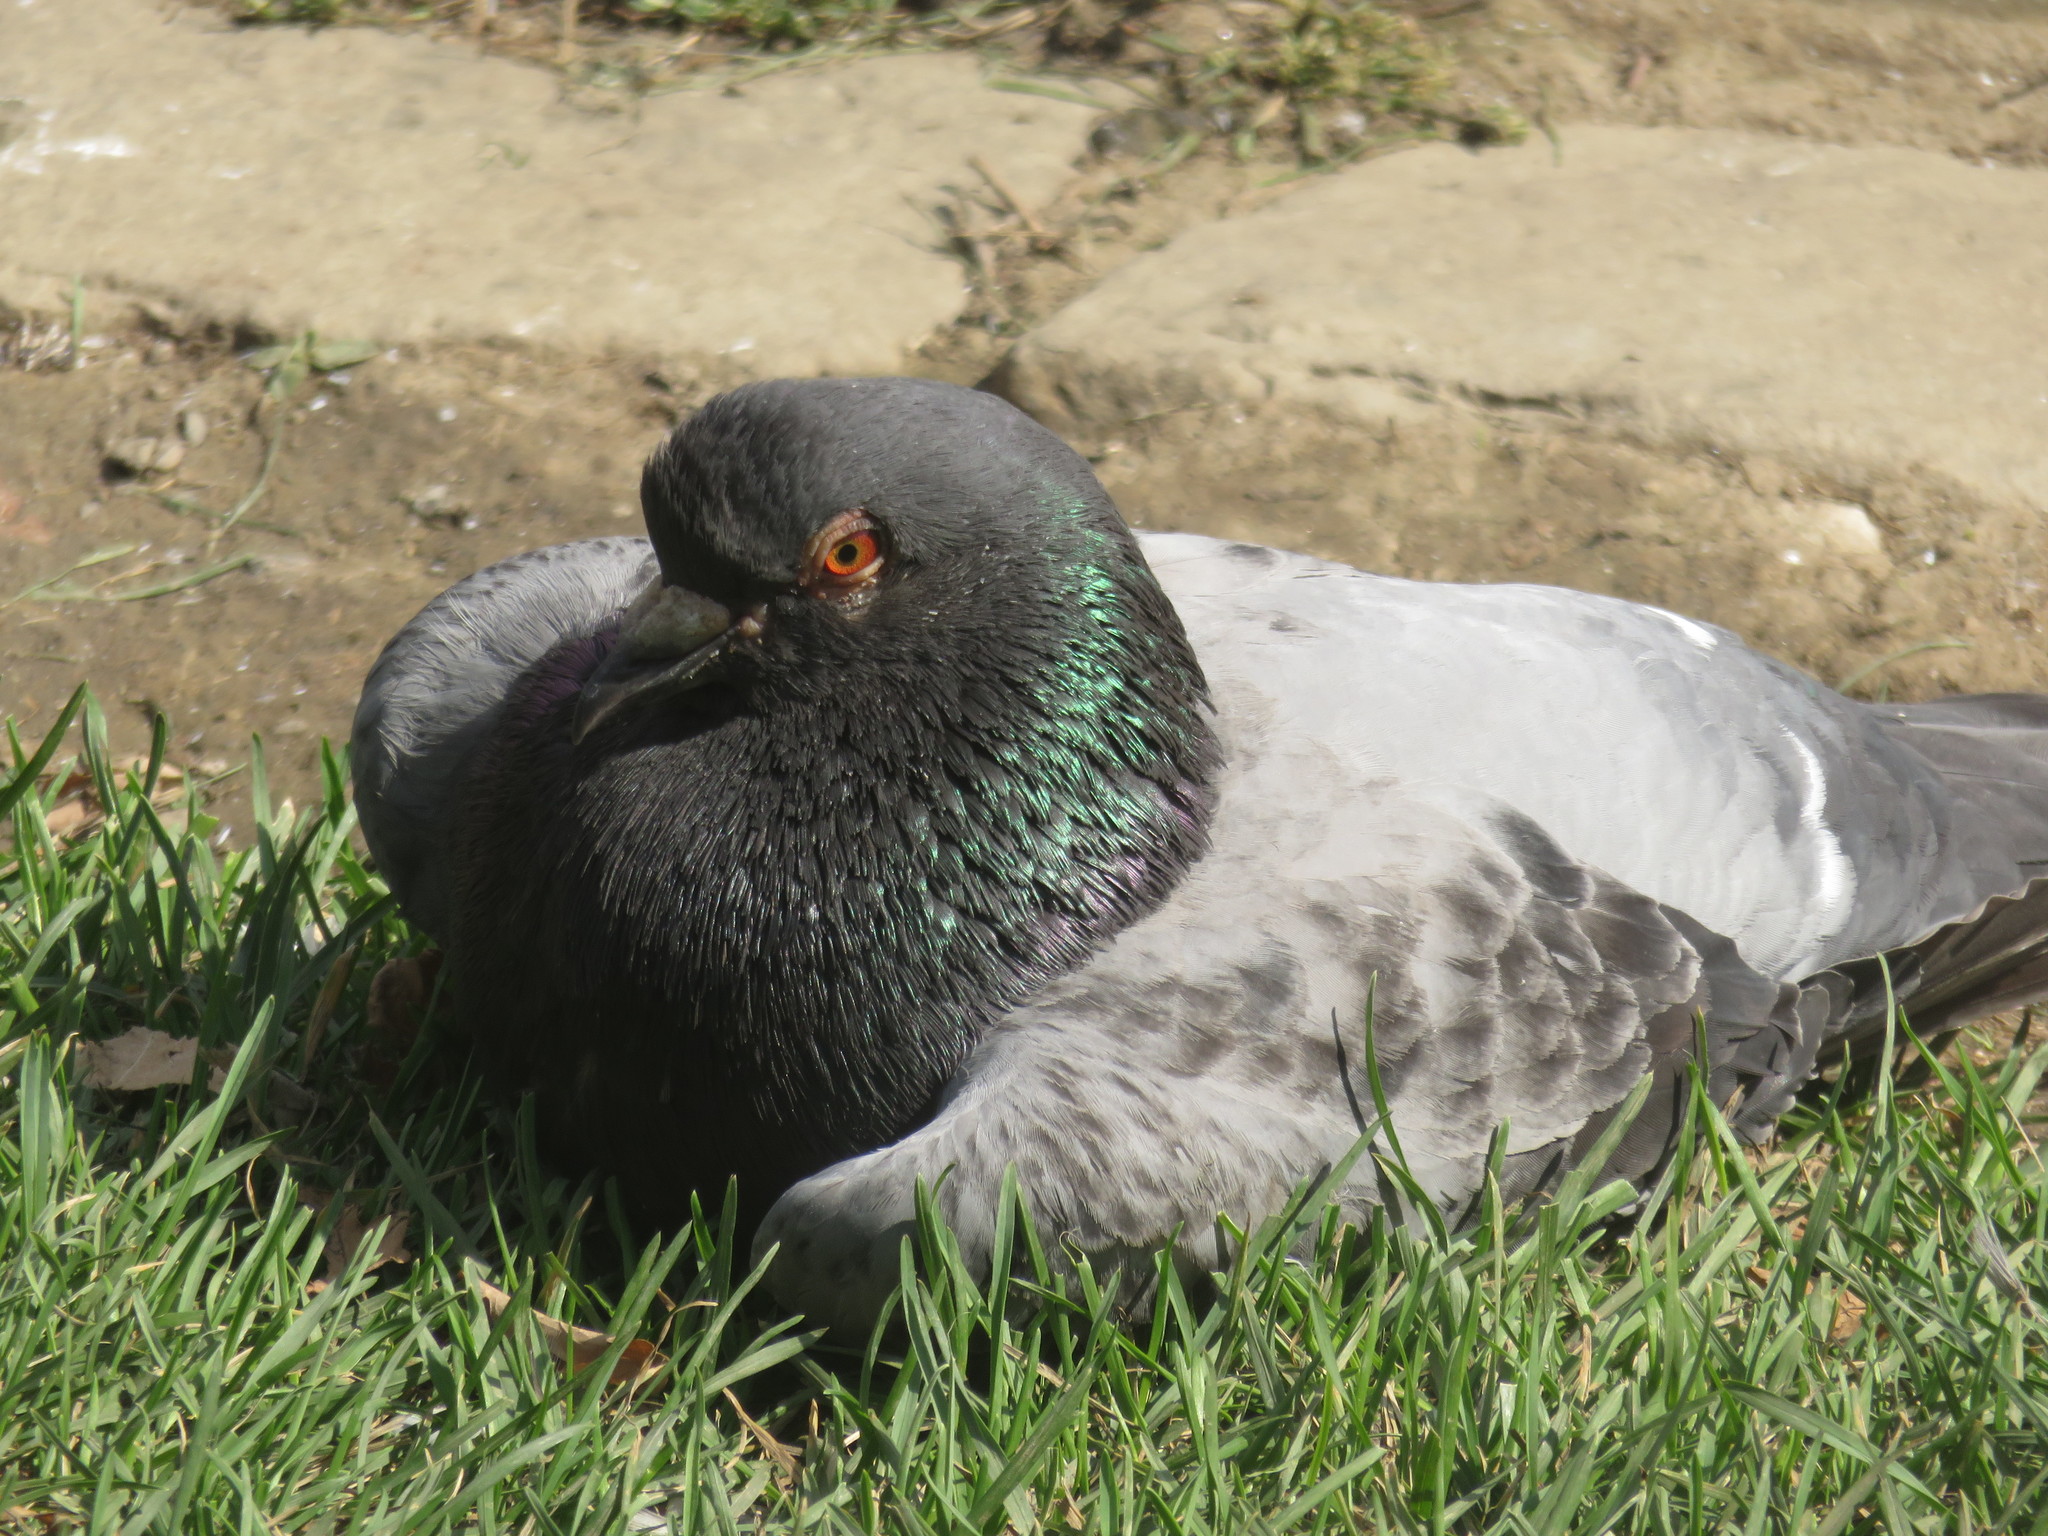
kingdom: Animalia
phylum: Chordata
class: Aves
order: Columbiformes
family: Columbidae
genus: Columba
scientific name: Columba livia
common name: Rock pigeon
